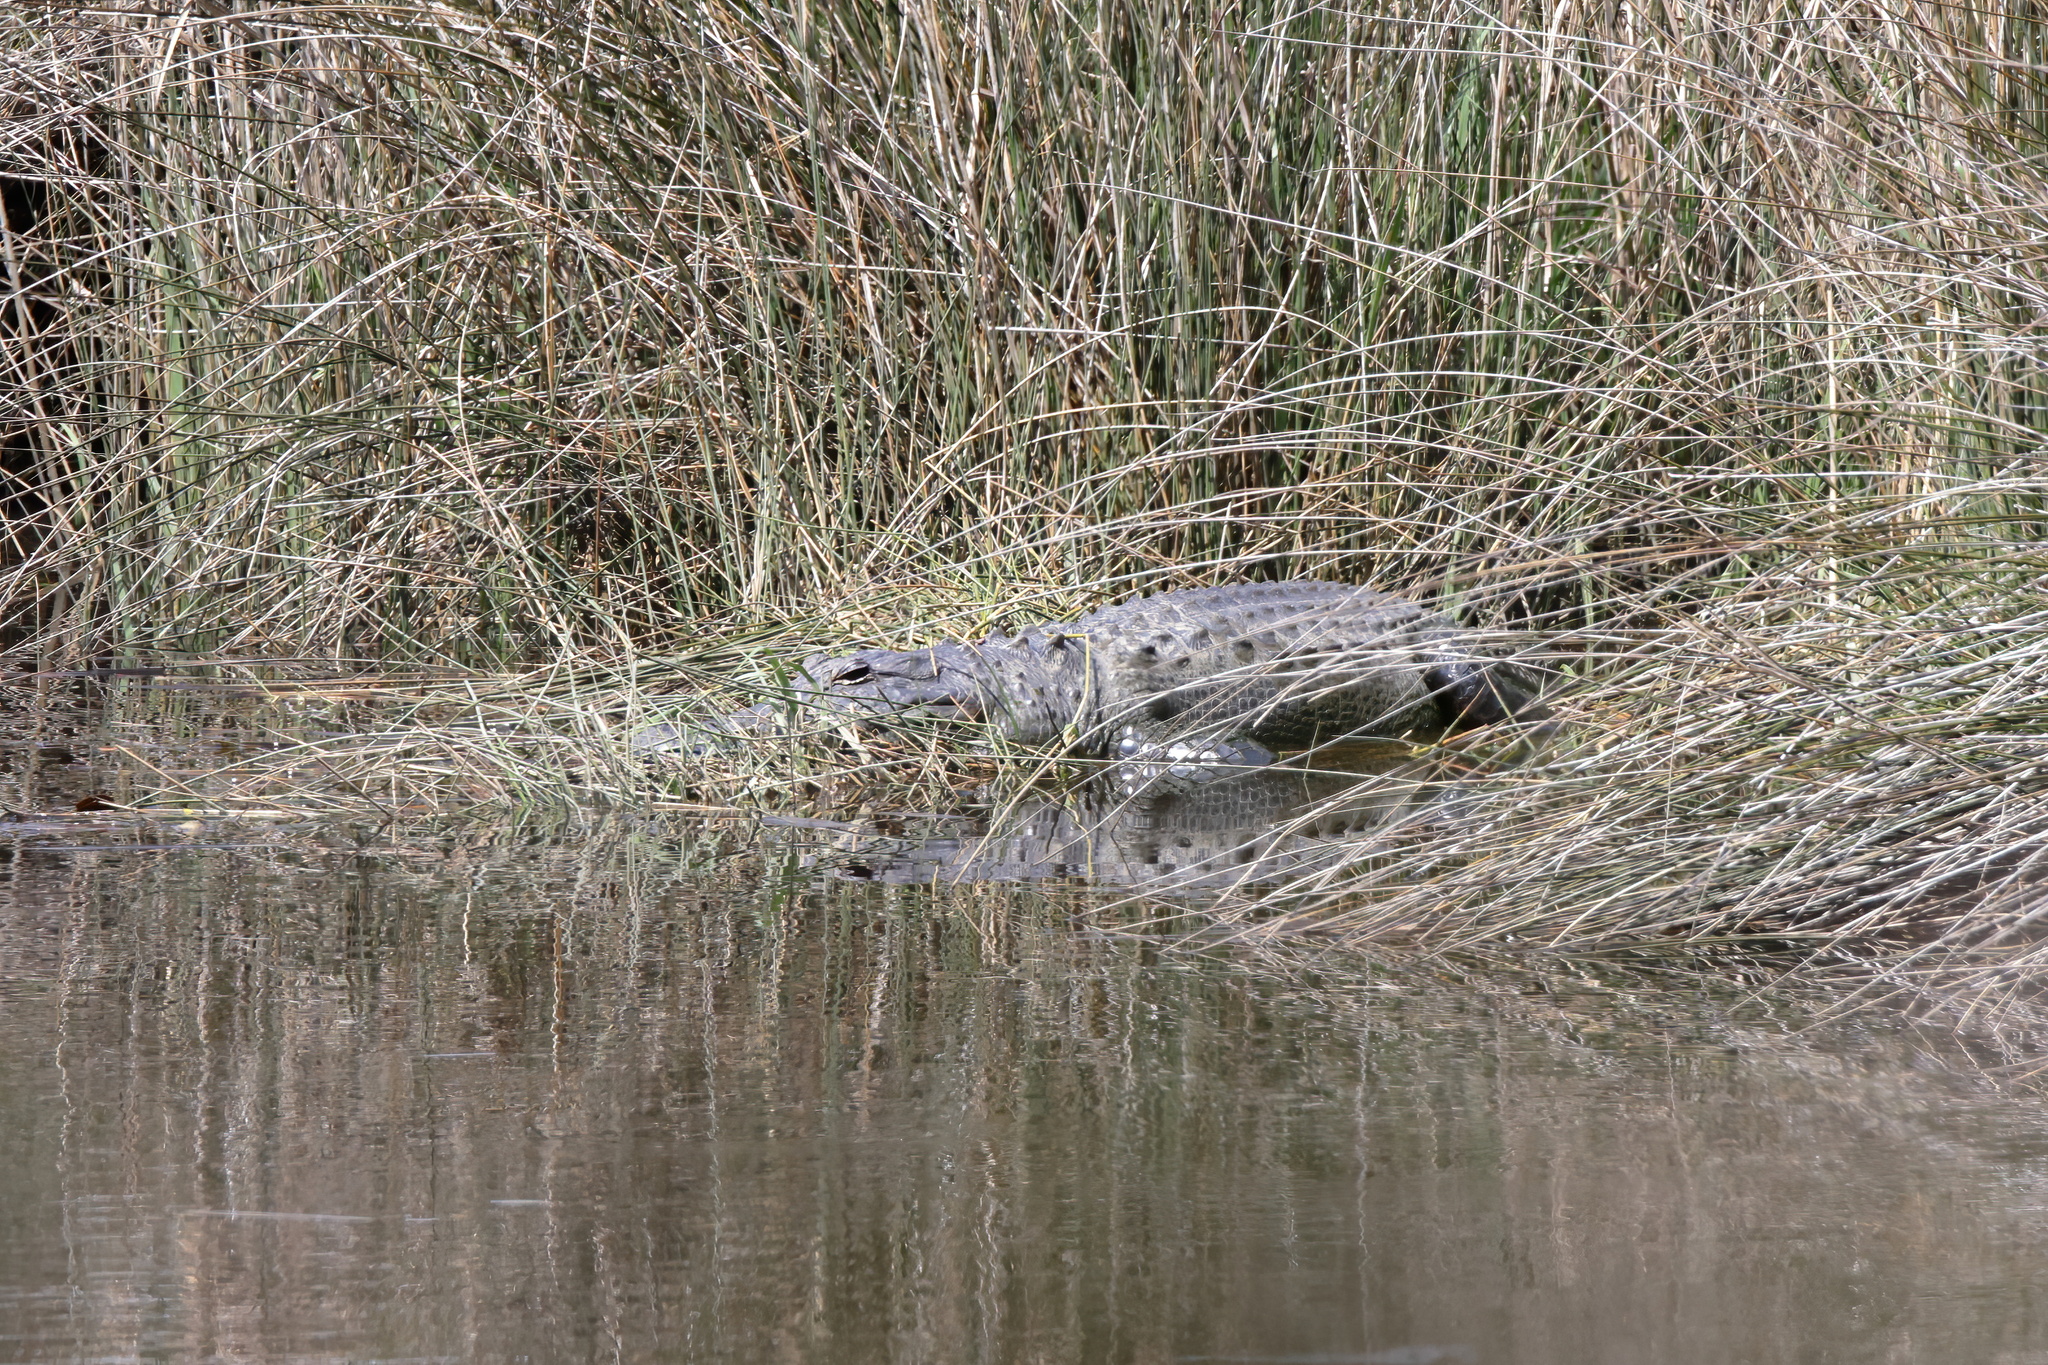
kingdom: Animalia
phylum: Chordata
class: Crocodylia
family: Alligatoridae
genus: Alligator
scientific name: Alligator mississippiensis
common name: American alligator
